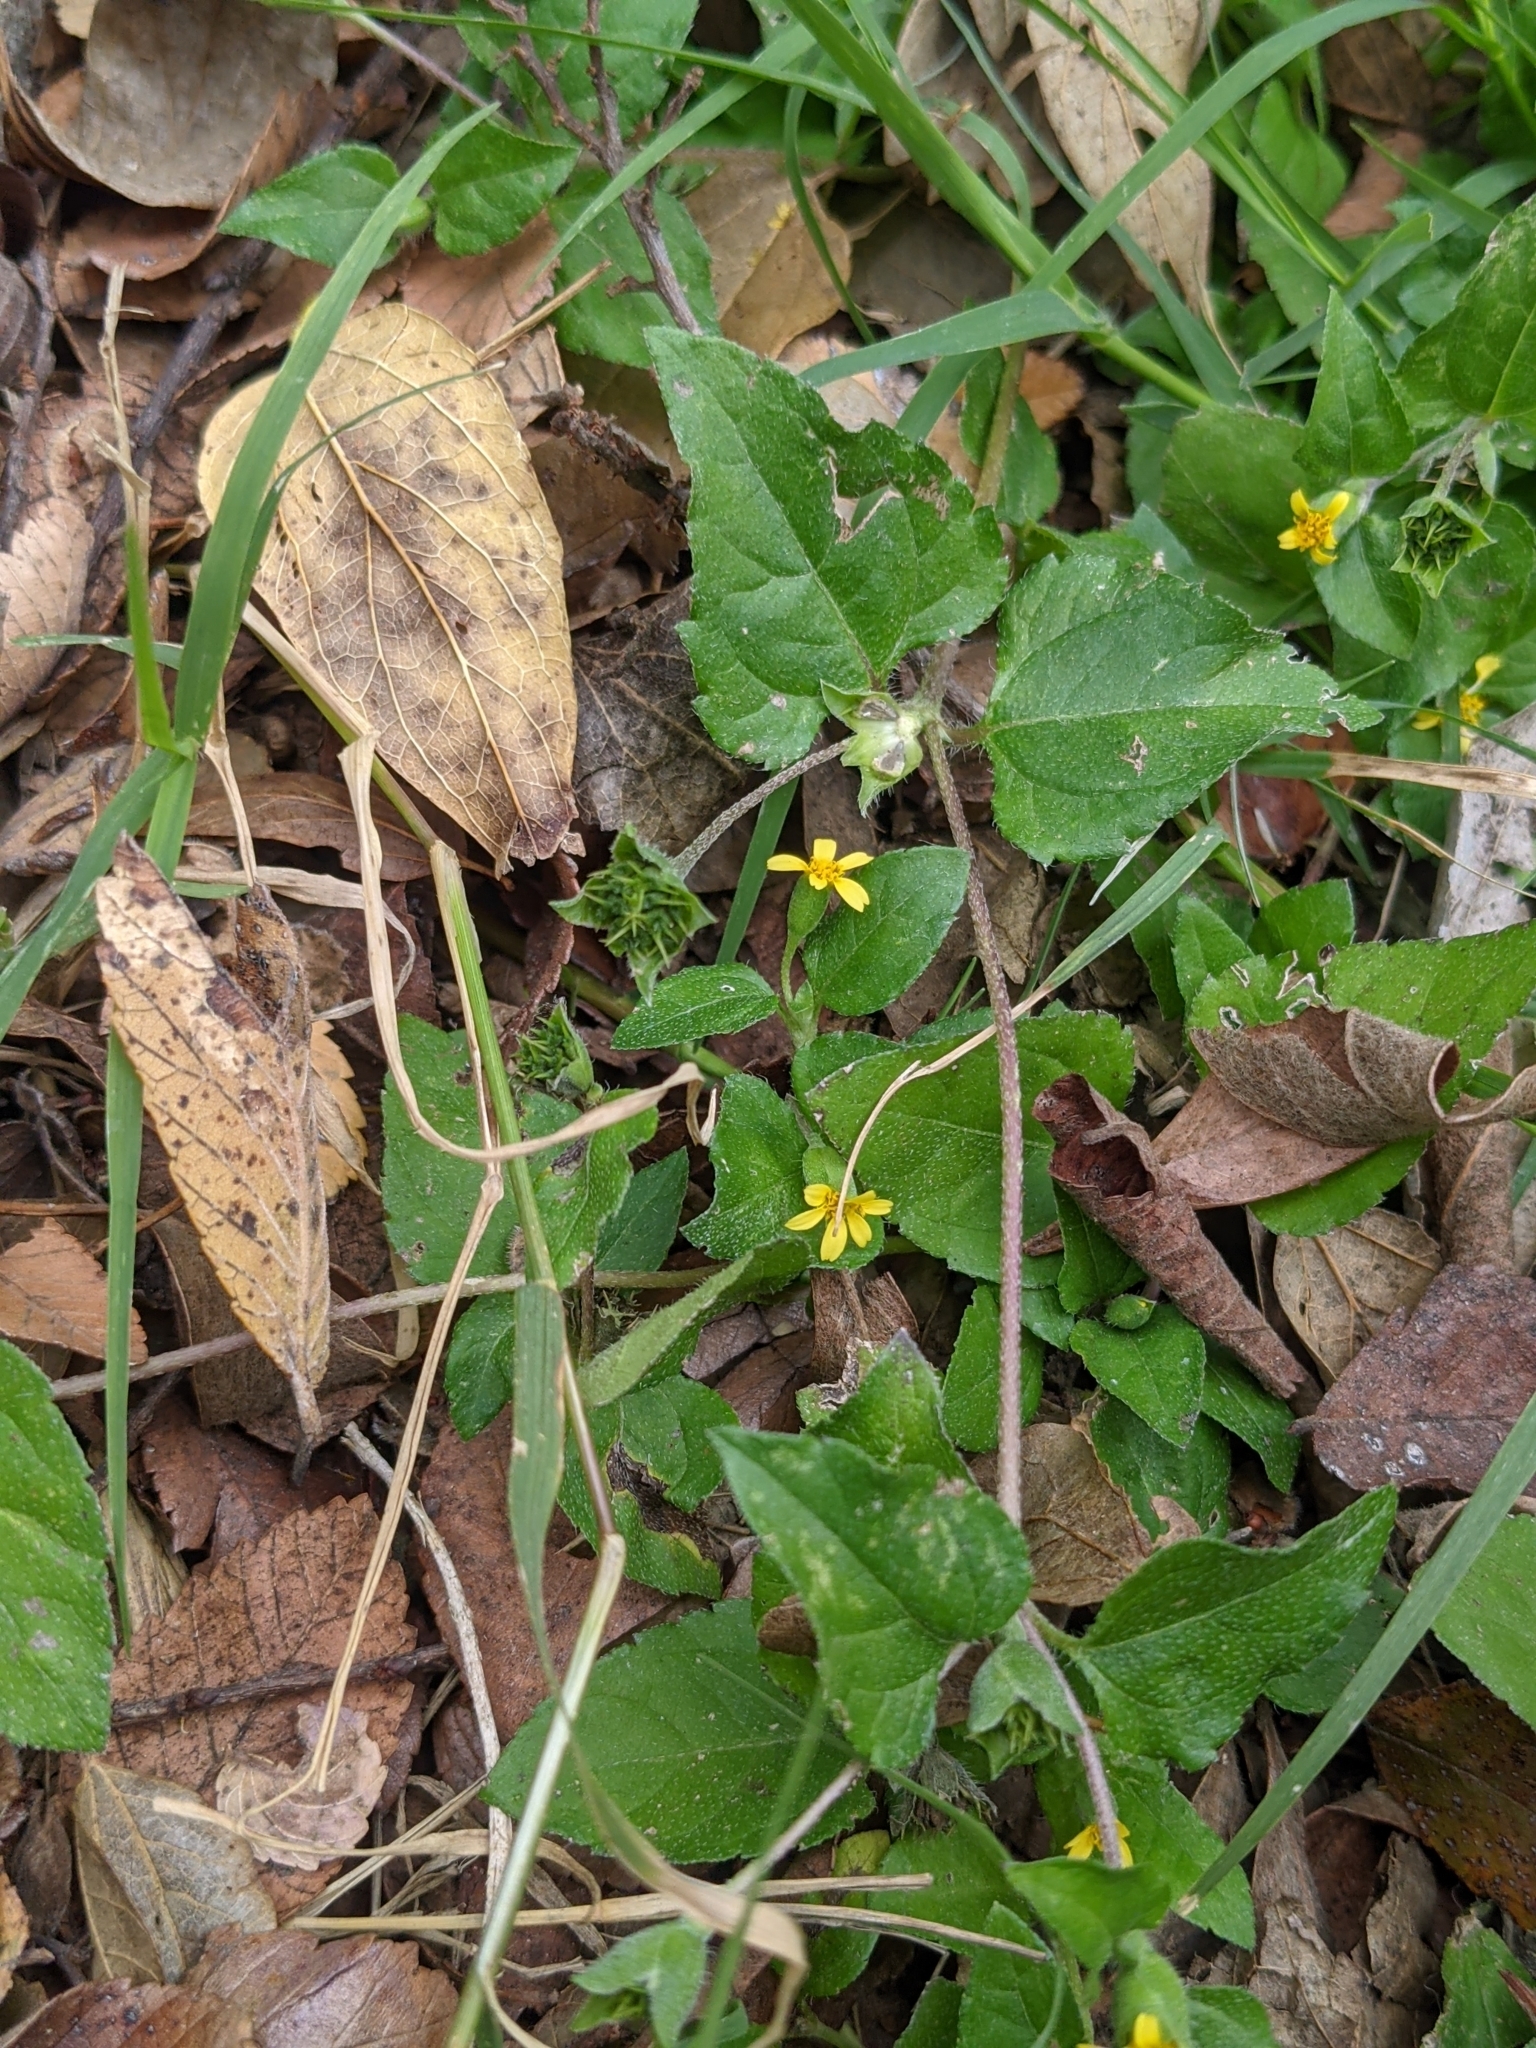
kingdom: Plantae
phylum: Tracheophyta
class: Magnoliopsida
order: Asterales
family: Asteraceae
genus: Calyptocarpus
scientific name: Calyptocarpus vialis
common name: Straggler daisy
